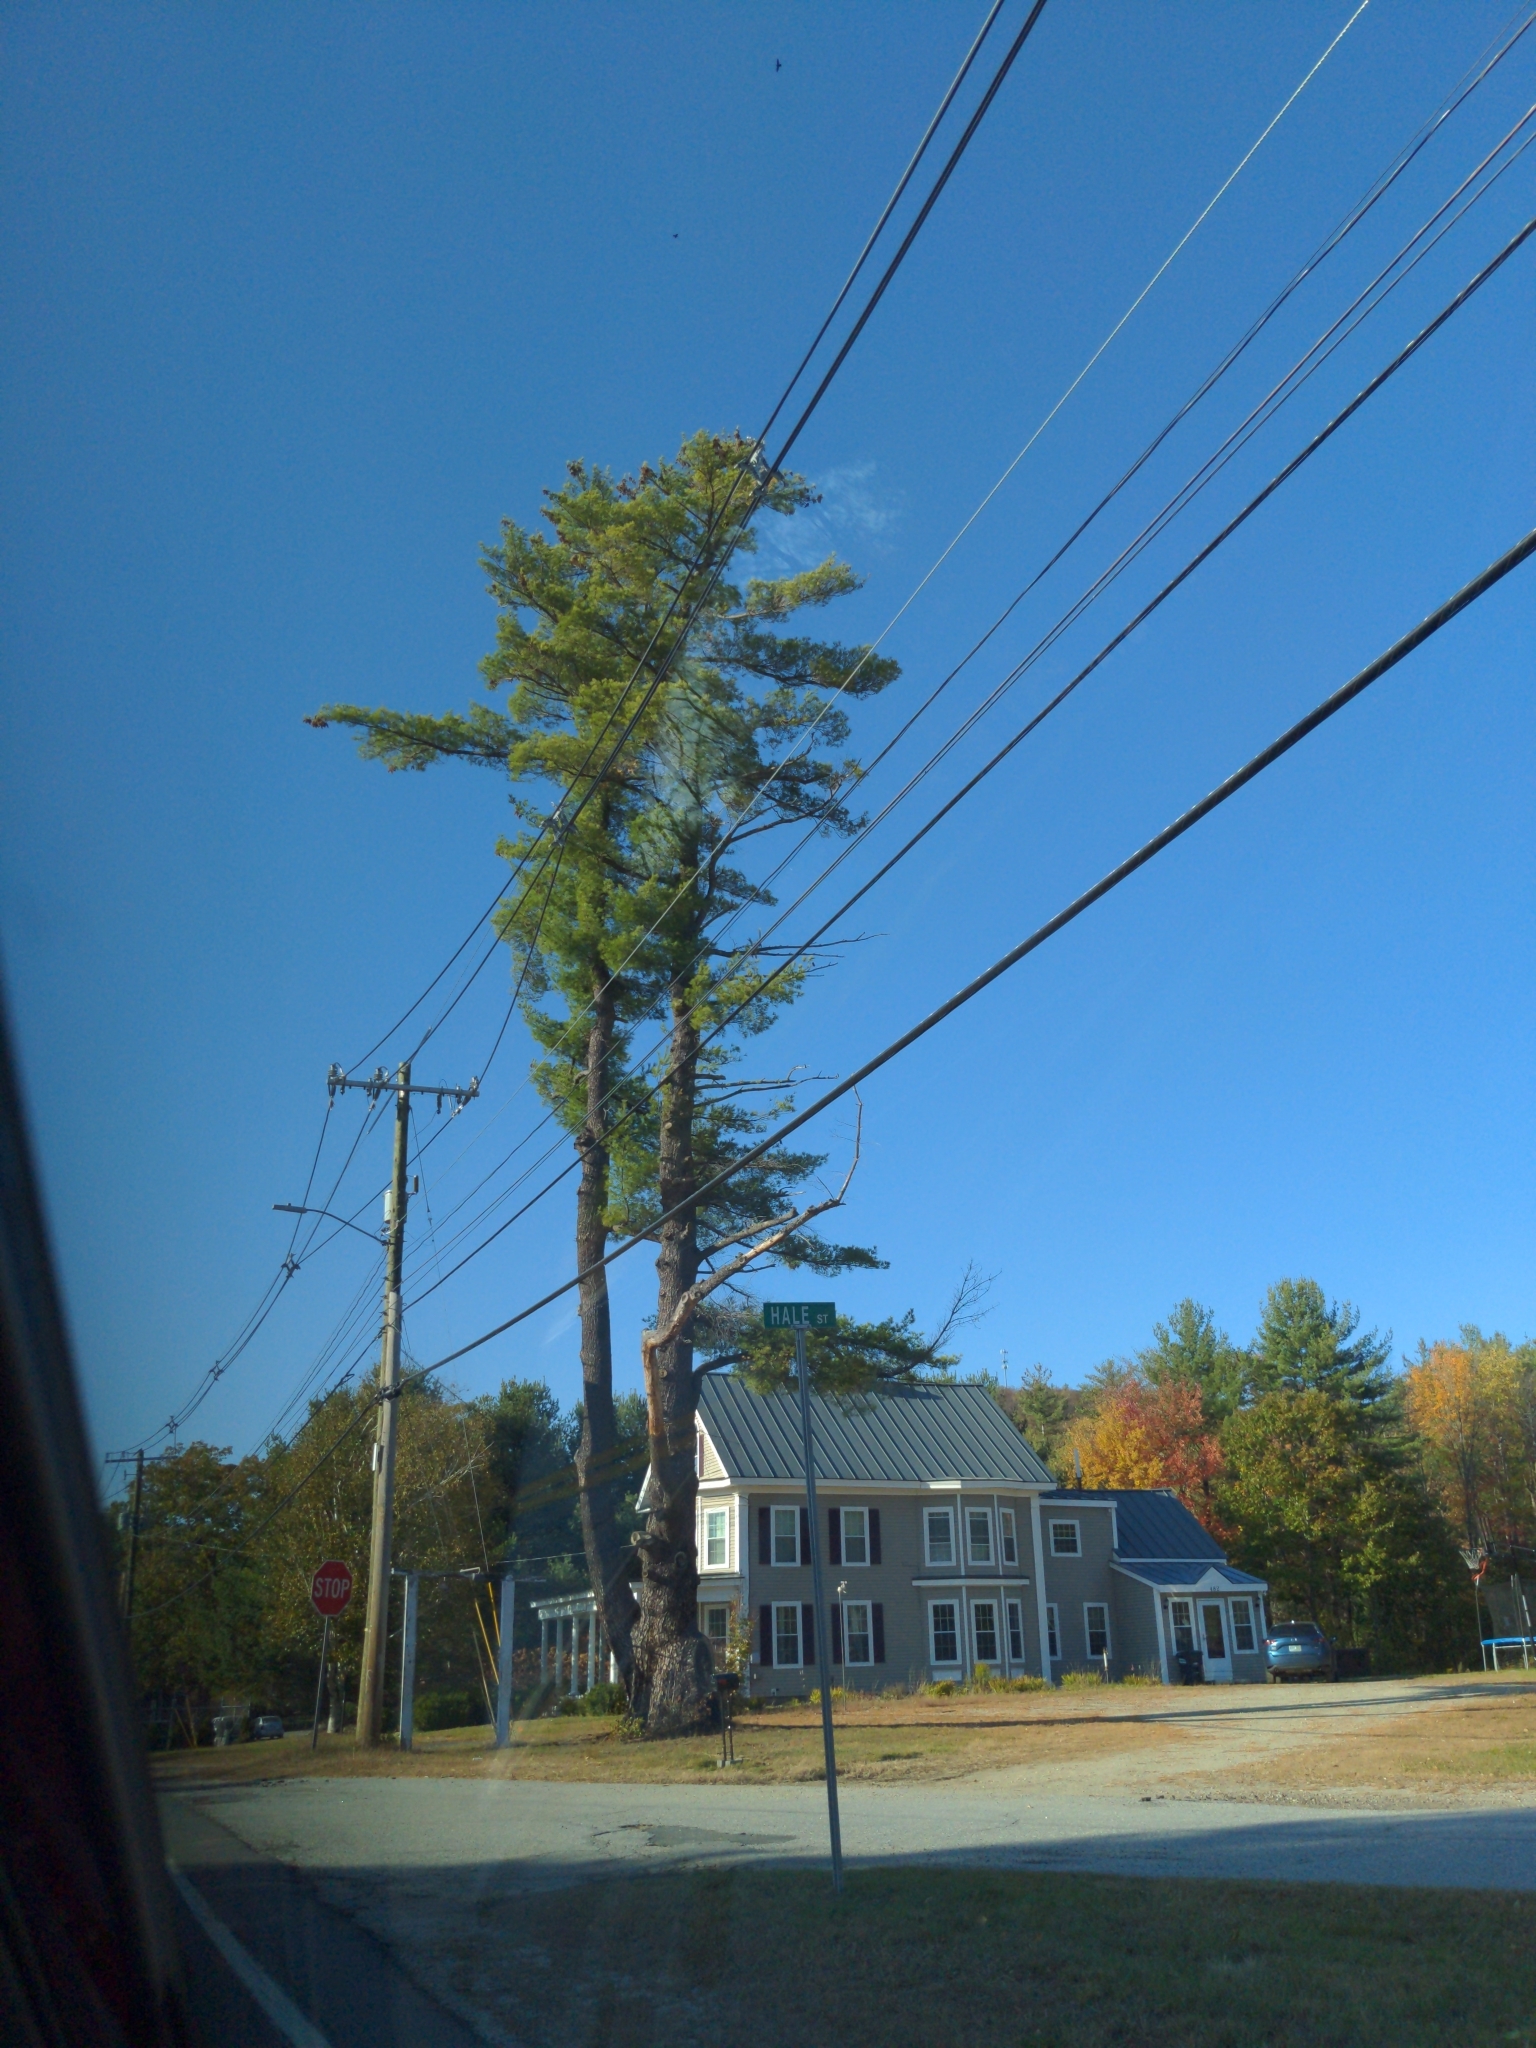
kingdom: Plantae
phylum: Tracheophyta
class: Pinopsida
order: Pinales
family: Pinaceae
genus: Pinus
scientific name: Pinus strobus
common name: Weymouth pine
